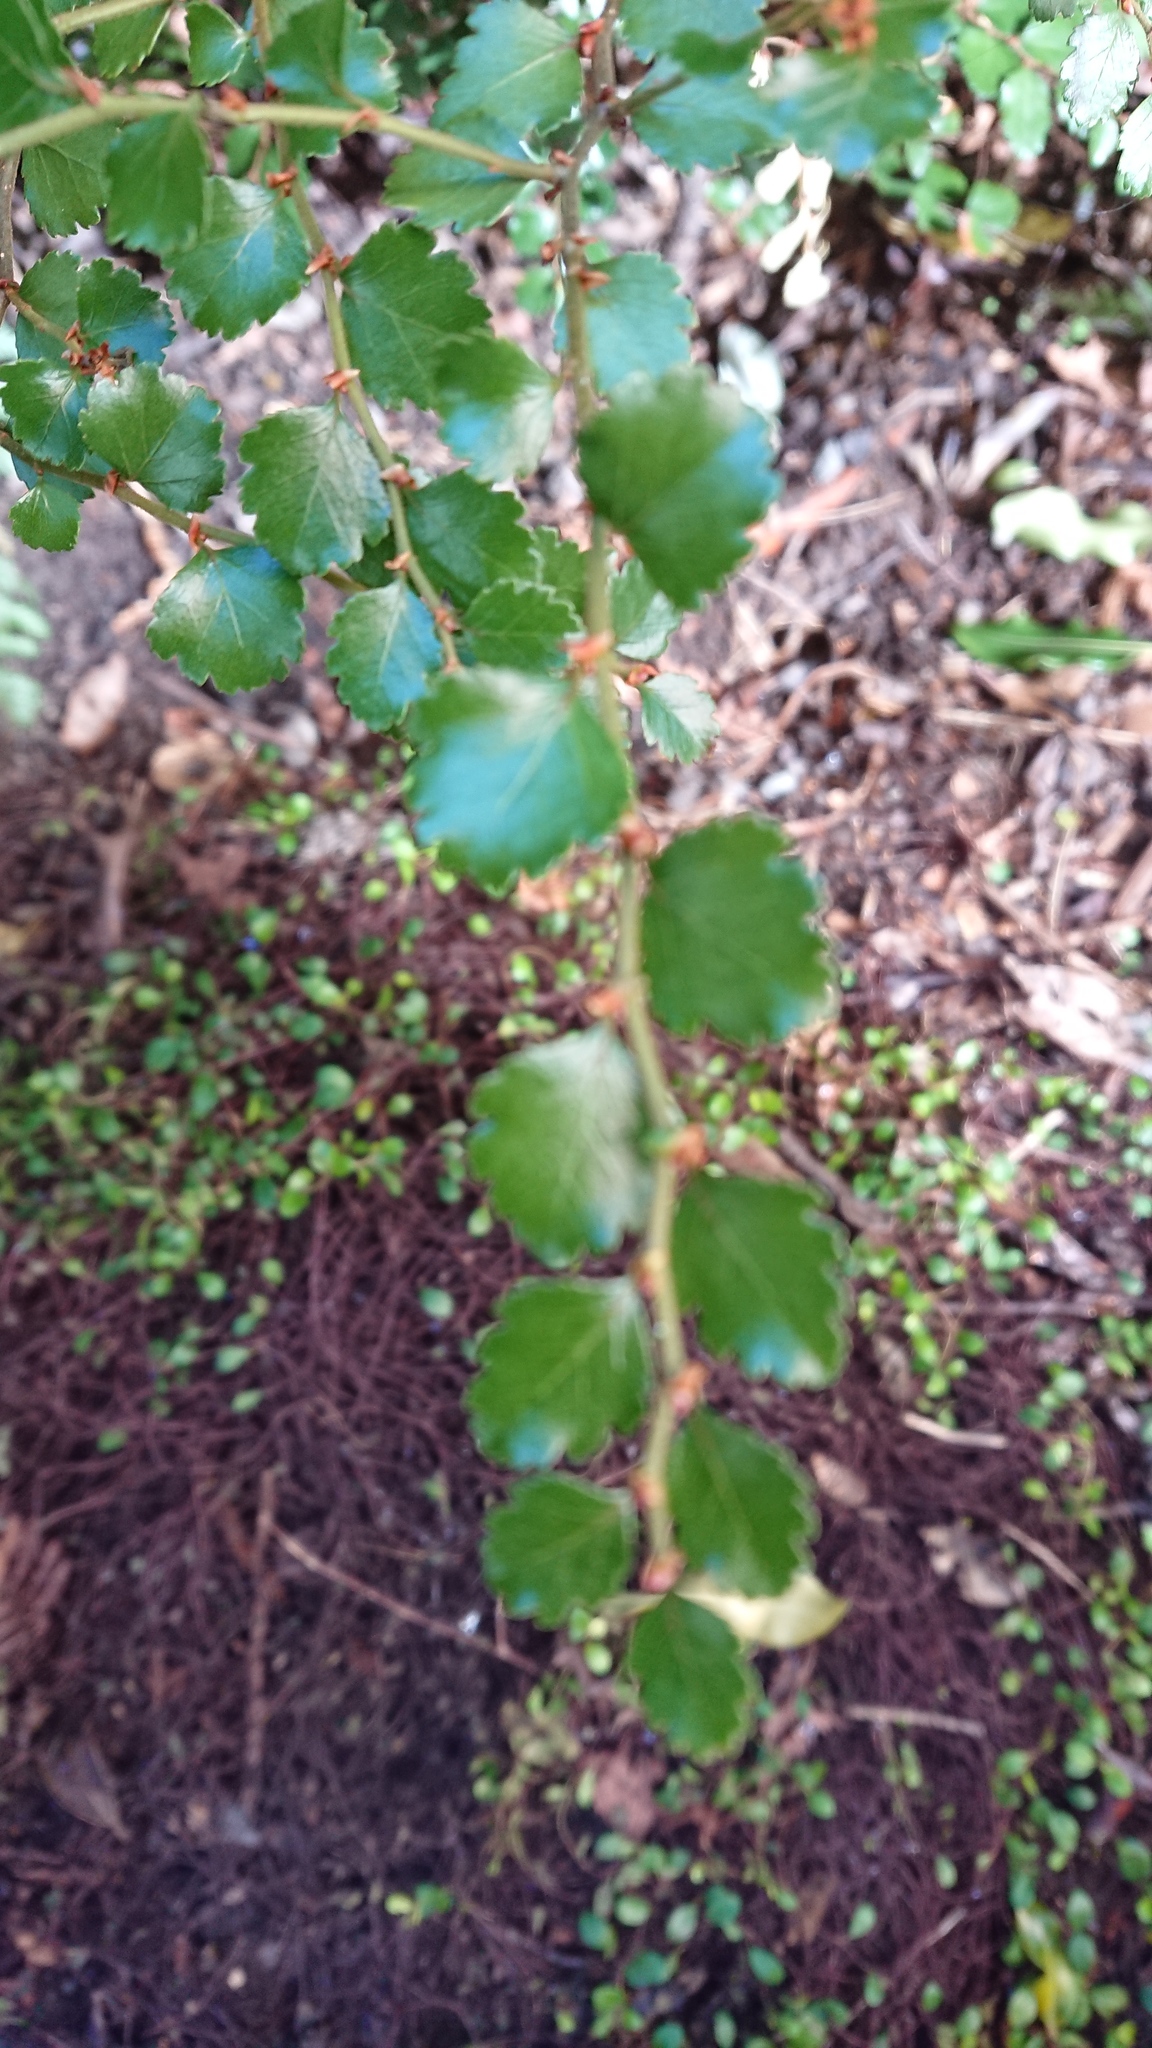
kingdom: Plantae
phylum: Tracheophyta
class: Magnoliopsida
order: Fagales
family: Nothofagaceae
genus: Nothofagus
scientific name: Nothofagus menziesii
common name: Silver beech
